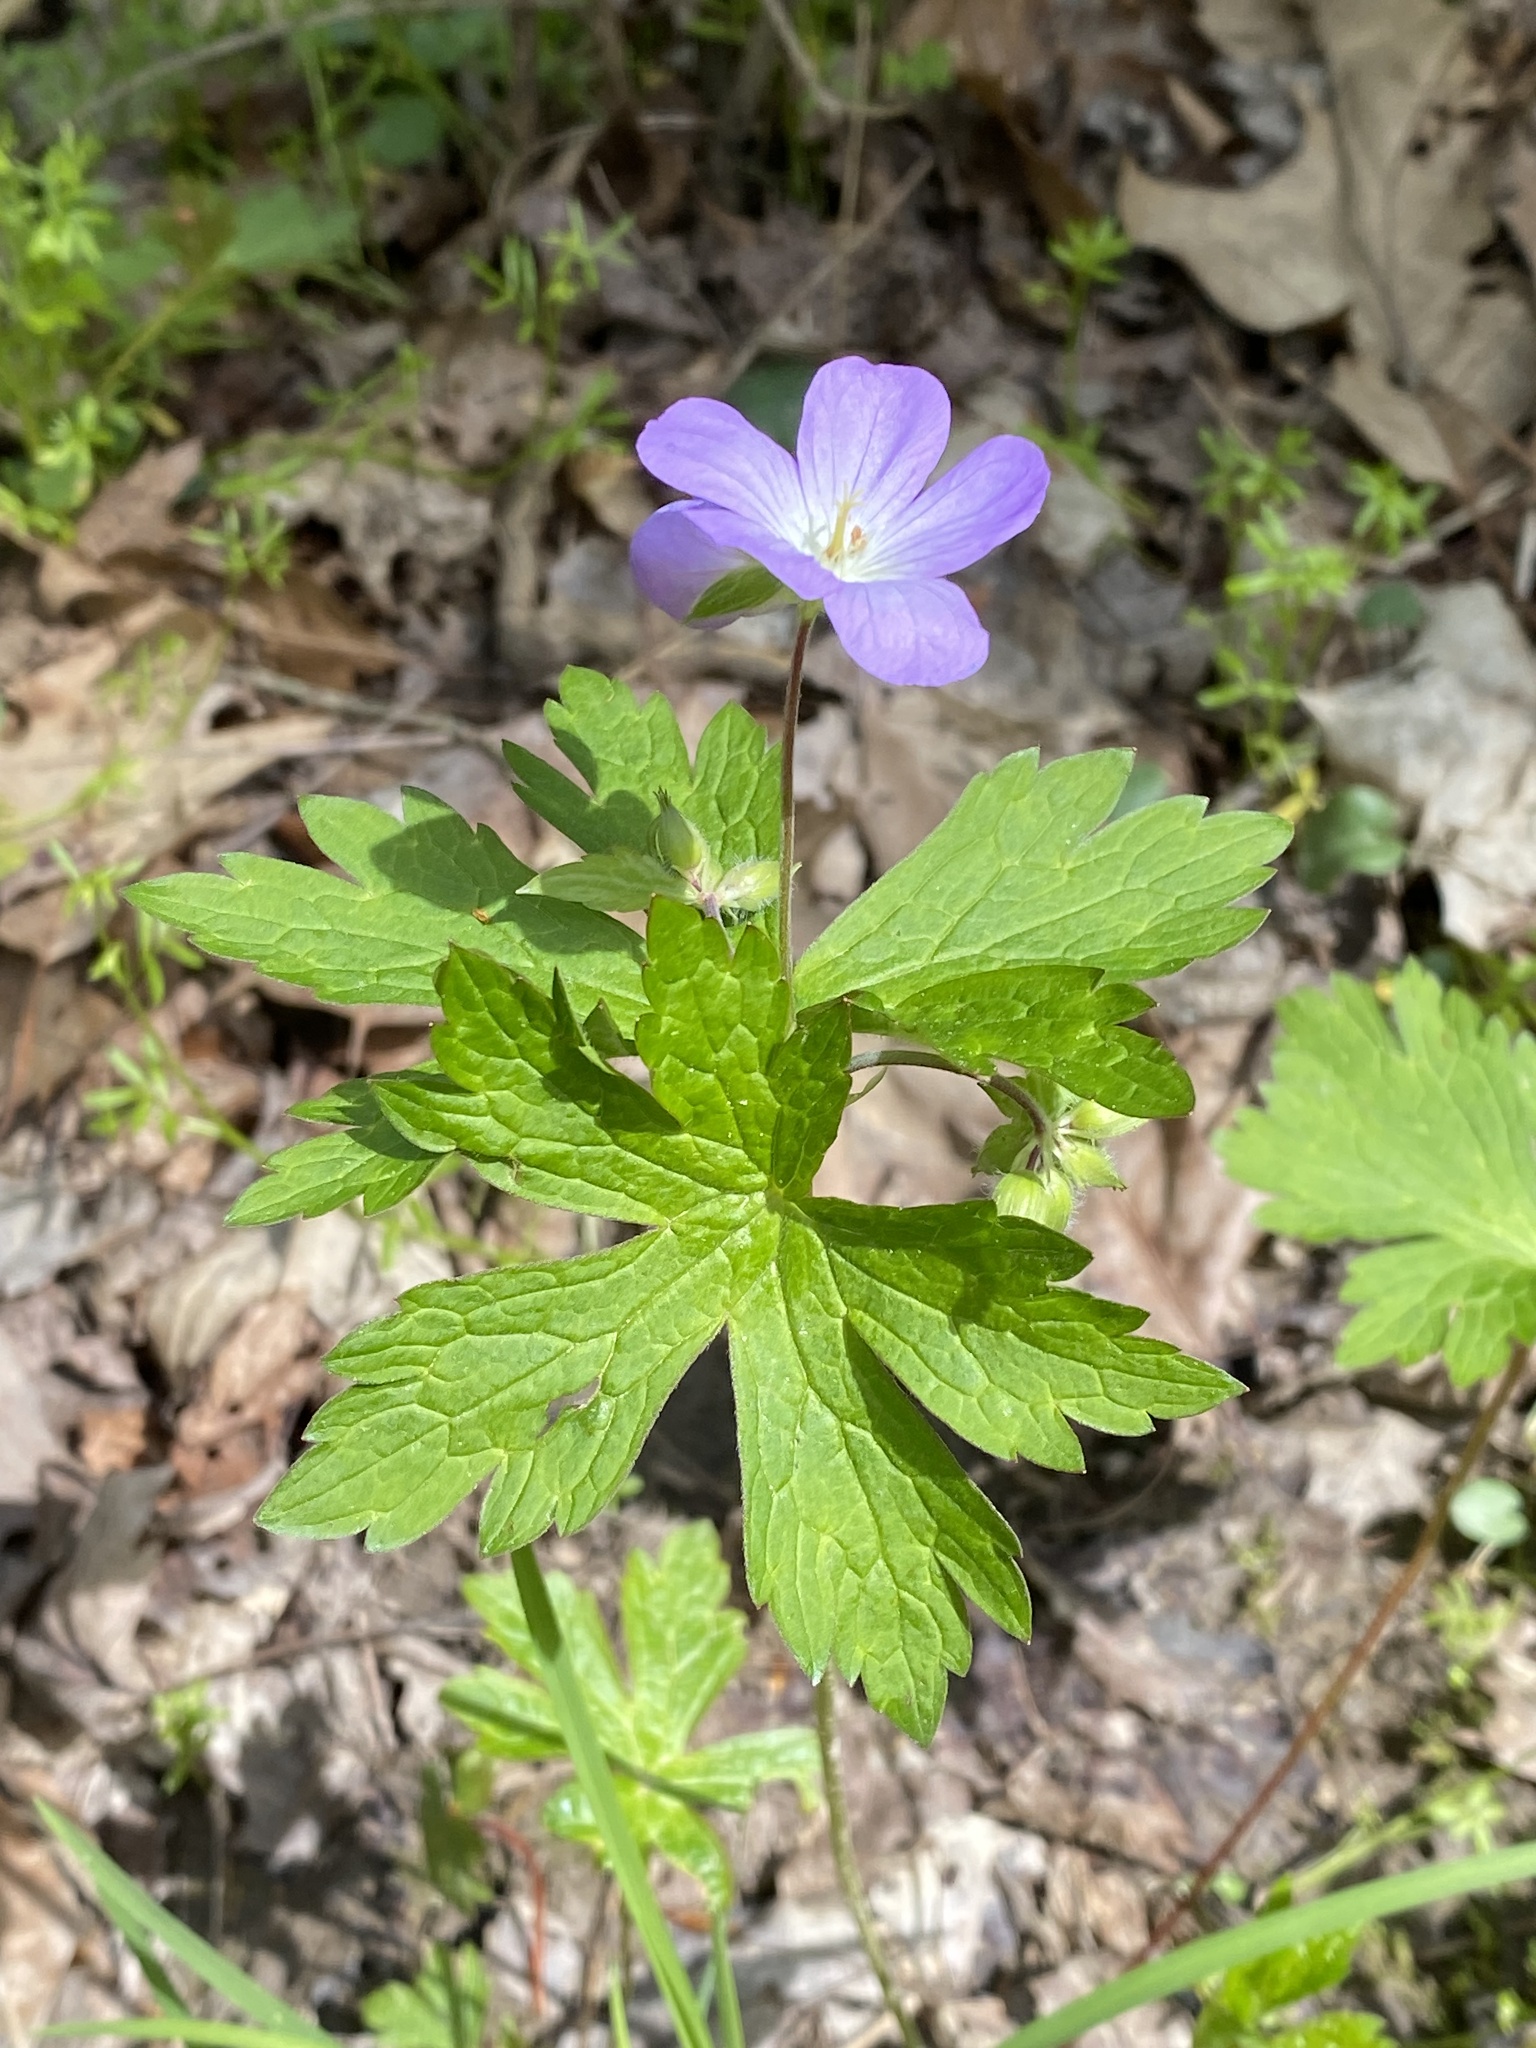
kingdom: Plantae
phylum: Tracheophyta
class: Magnoliopsida
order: Geraniales
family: Geraniaceae
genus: Geranium
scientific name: Geranium maculatum
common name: Spotted geranium
